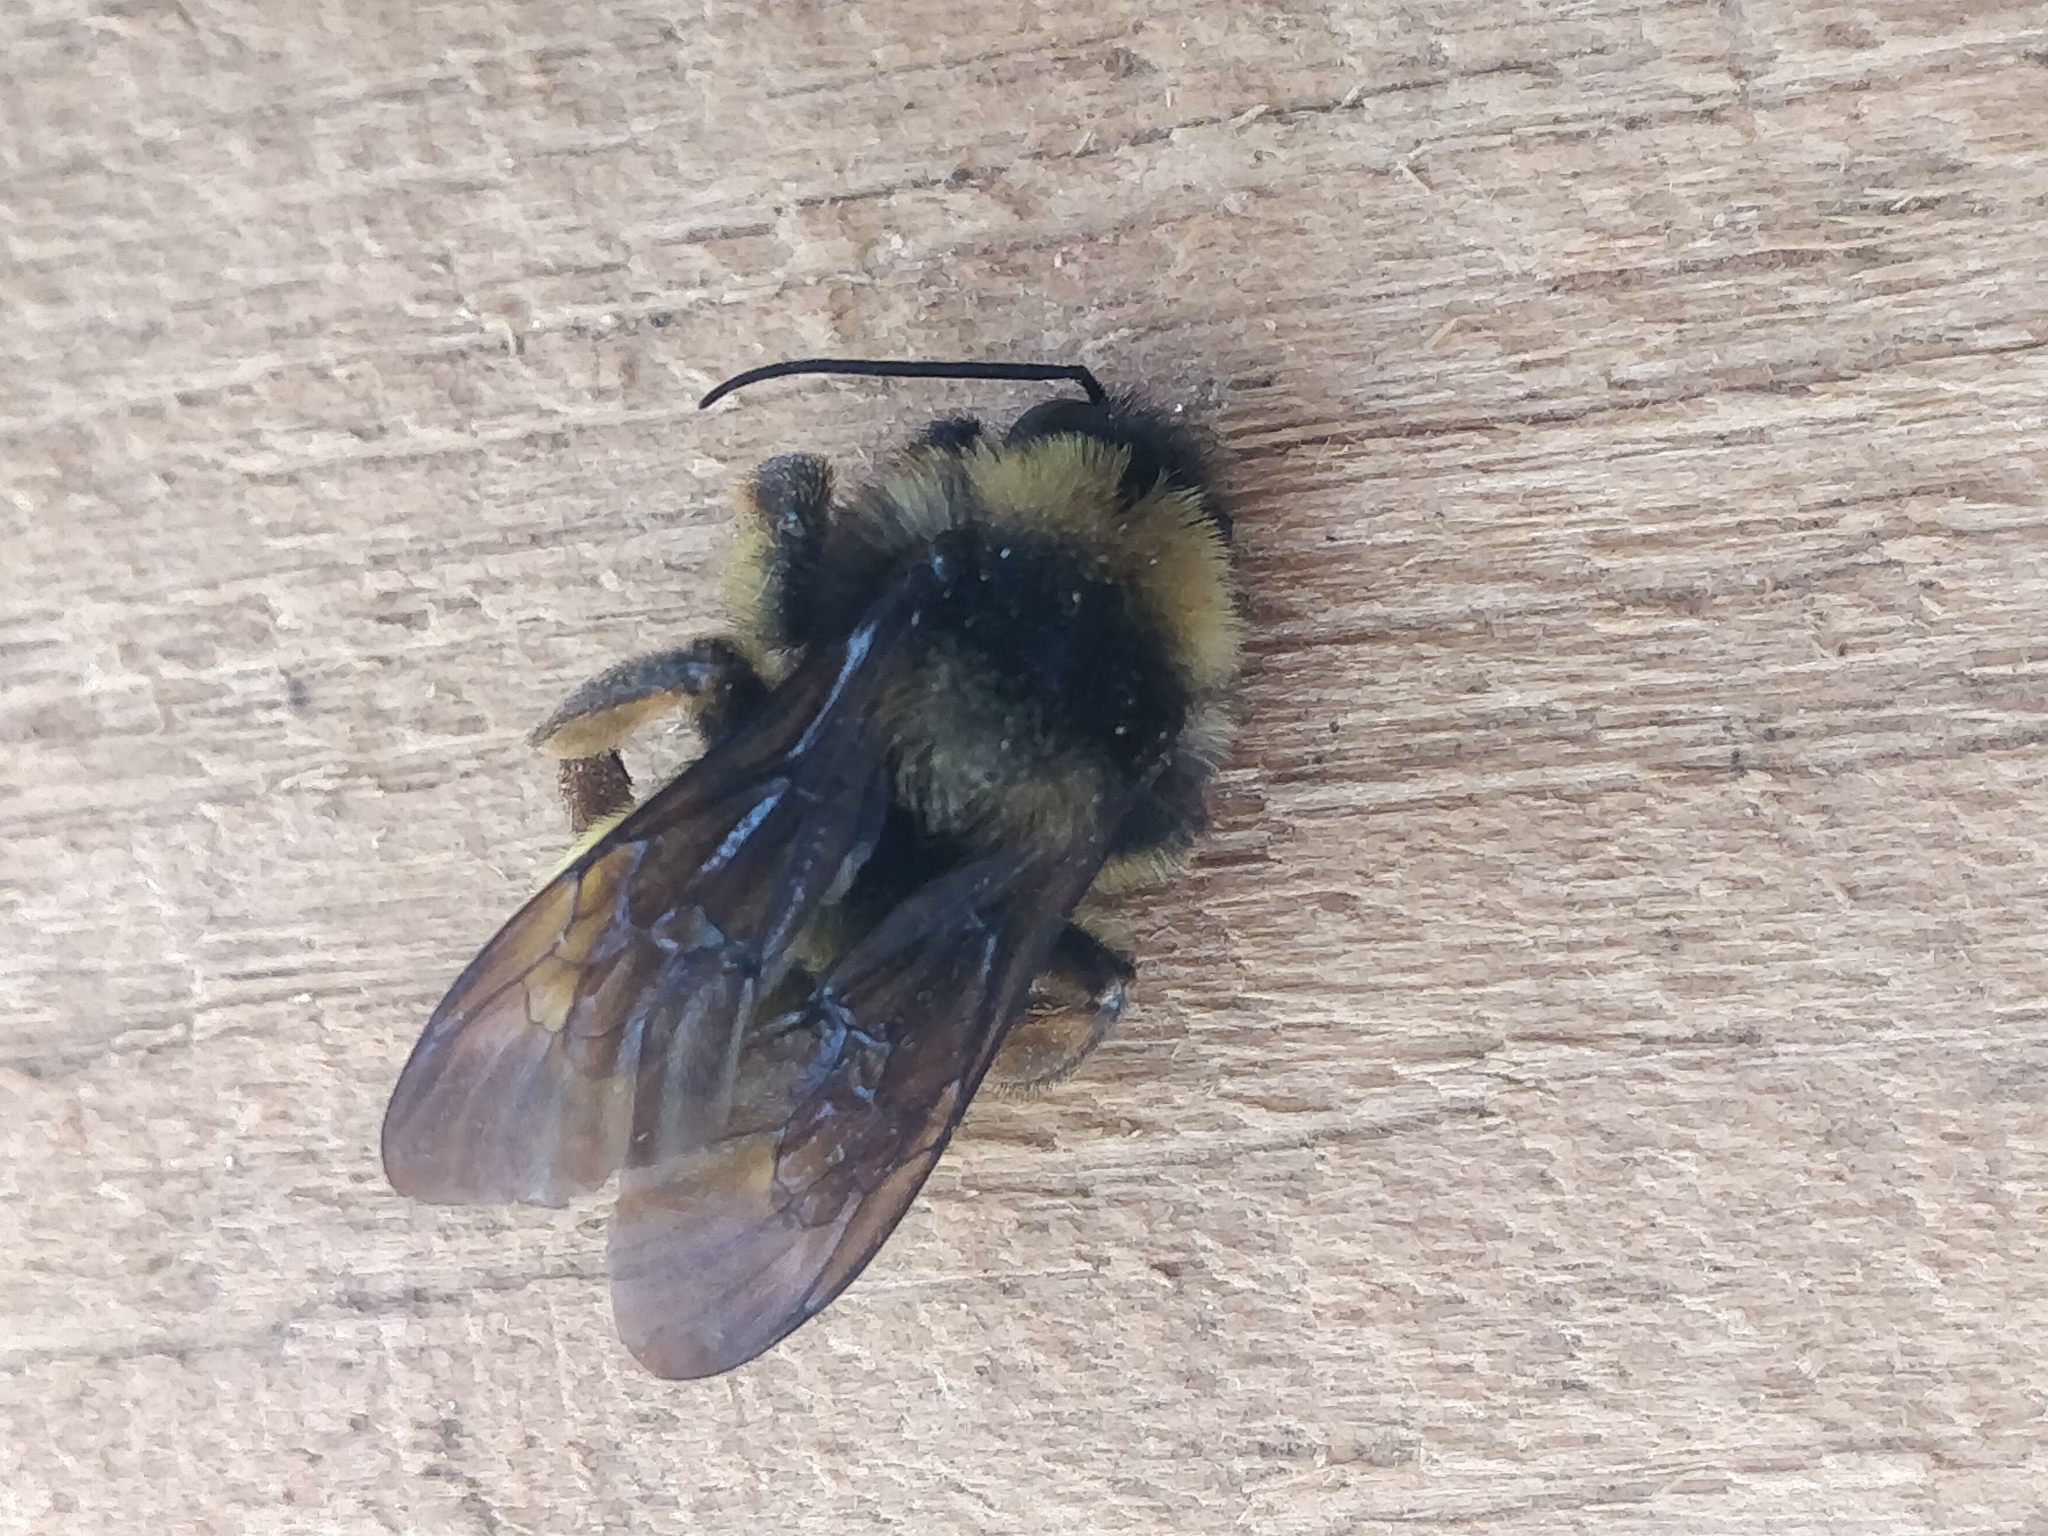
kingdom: Animalia
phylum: Arthropoda
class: Insecta
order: Hymenoptera
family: Apidae
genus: Bombus
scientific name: Bombus pensylvanicus
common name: Bumble bee
